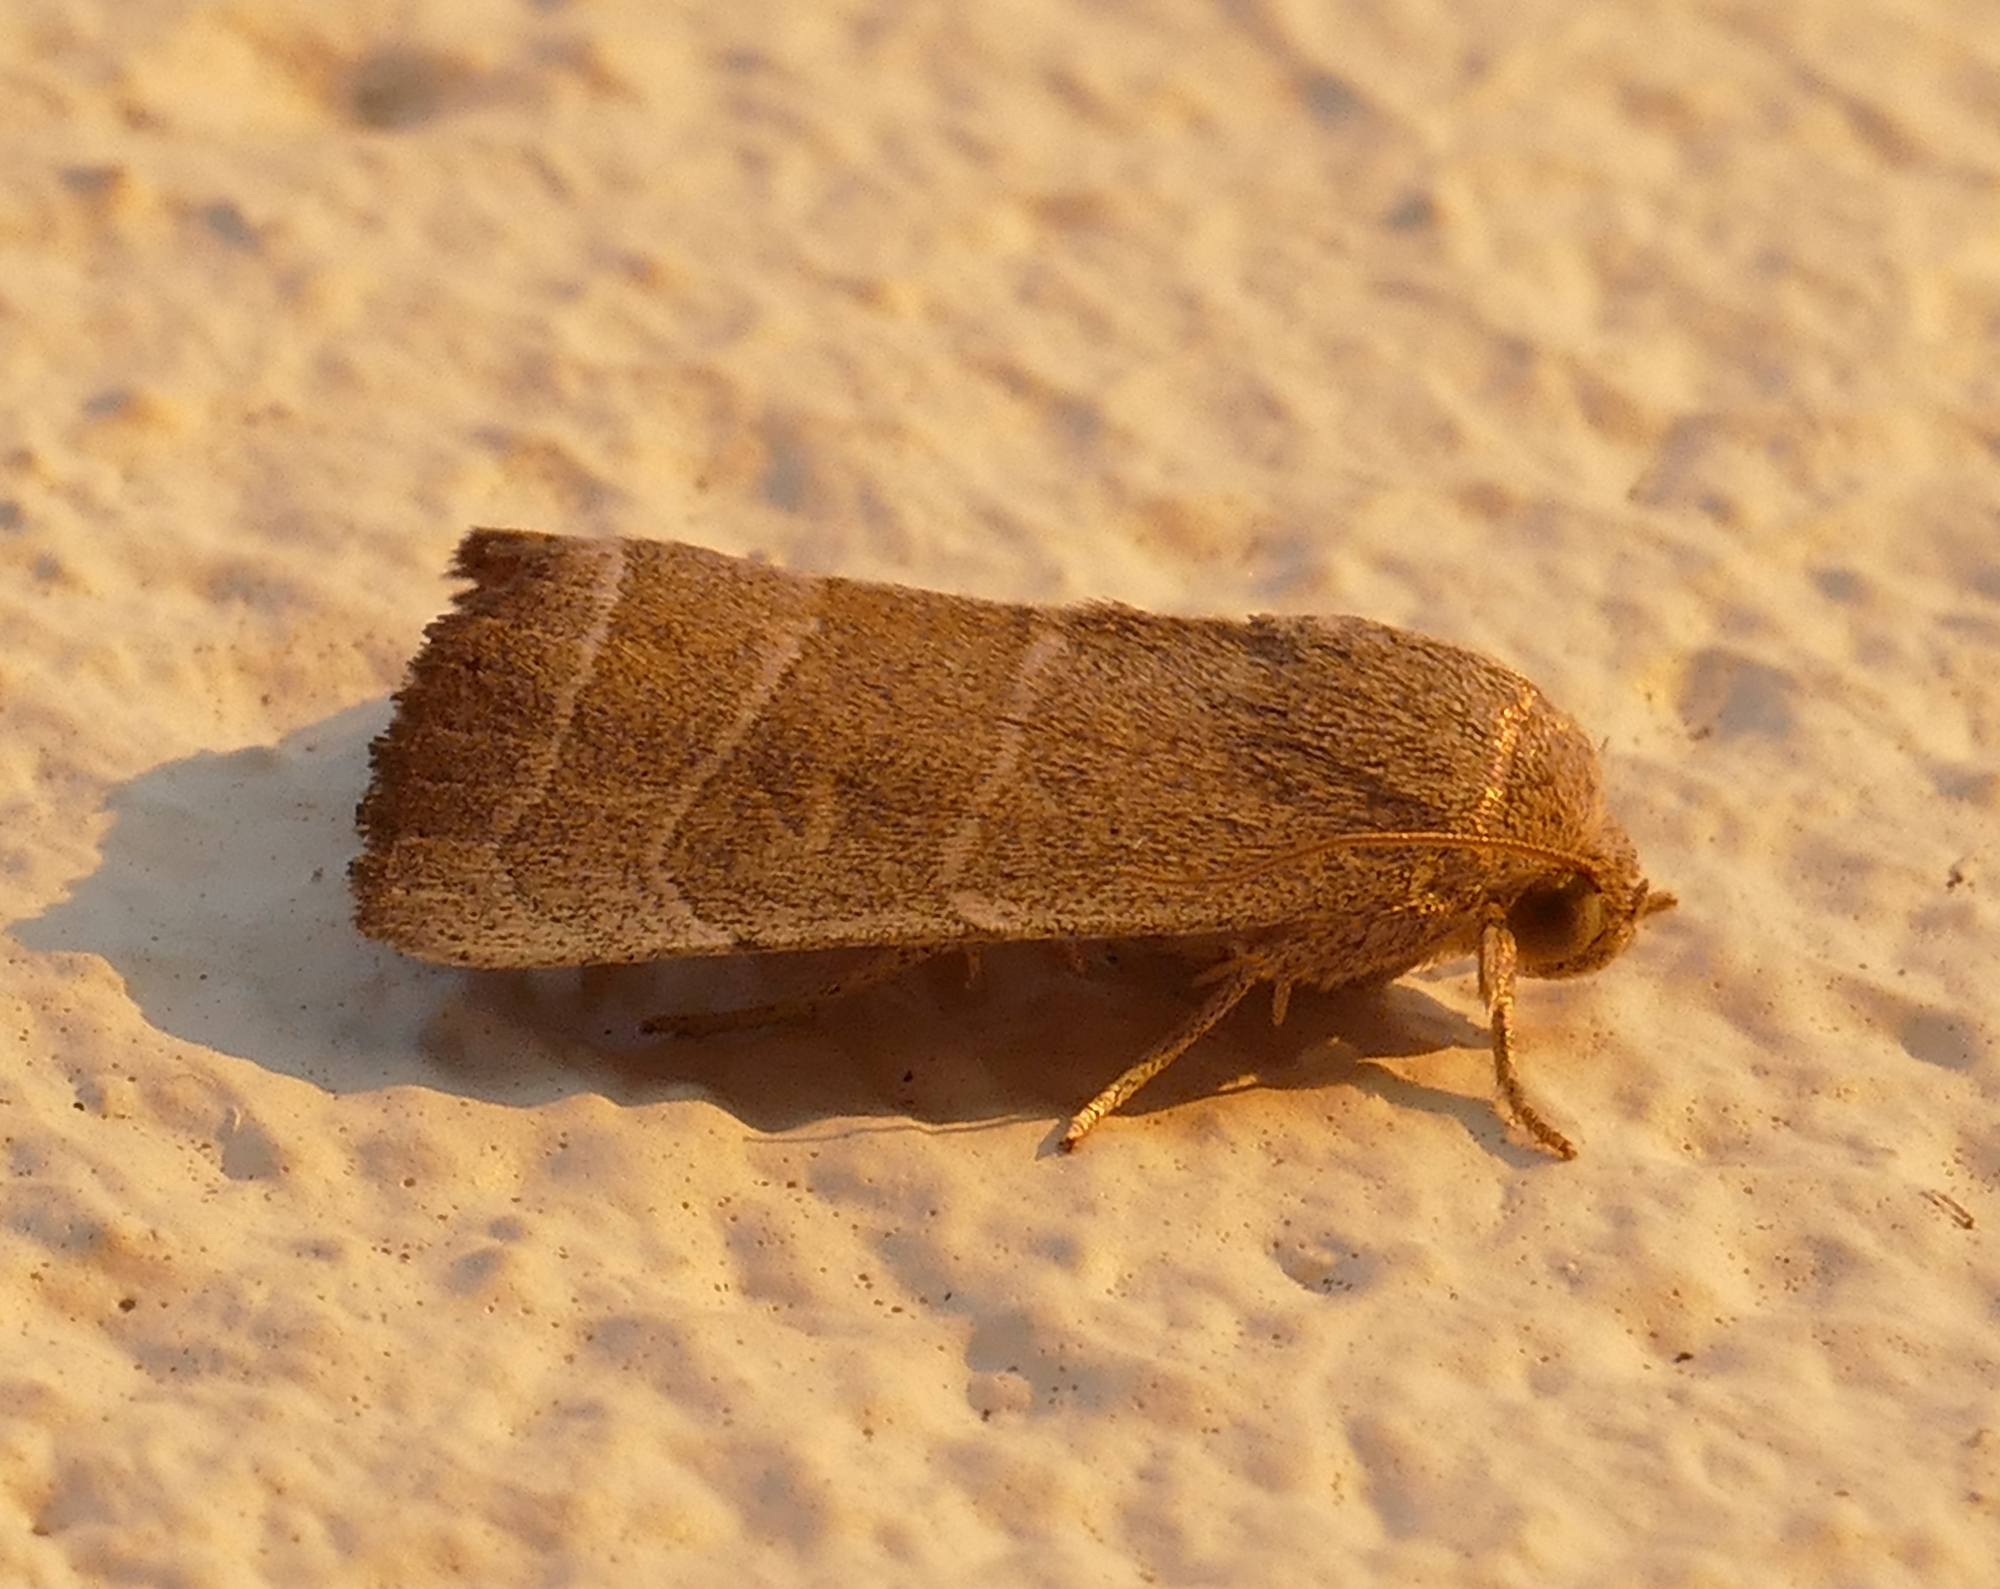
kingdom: Animalia
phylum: Arthropoda
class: Insecta
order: Lepidoptera
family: Noctuidae
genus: Bagisara
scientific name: Bagisara rectifascia
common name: Straight lined mallow moth
